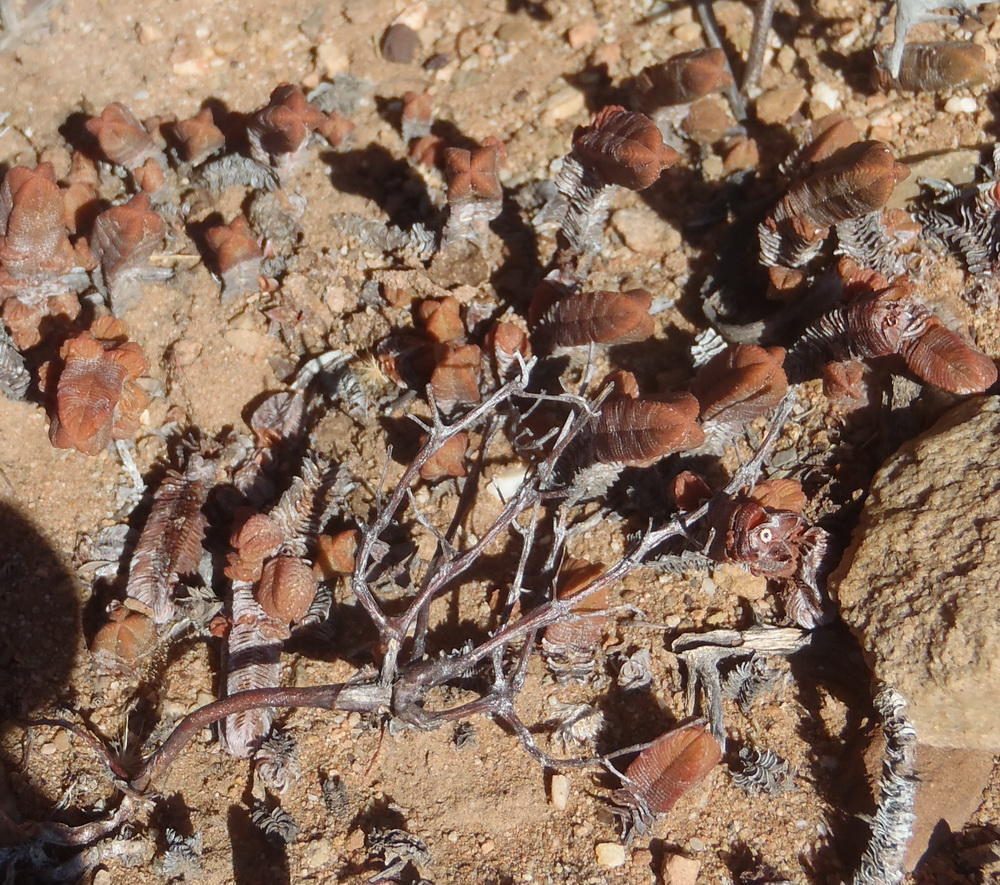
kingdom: Plantae
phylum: Tracheophyta
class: Magnoliopsida
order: Saxifragales
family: Crassulaceae
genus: Crassula
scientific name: Crassula pyramidalis
